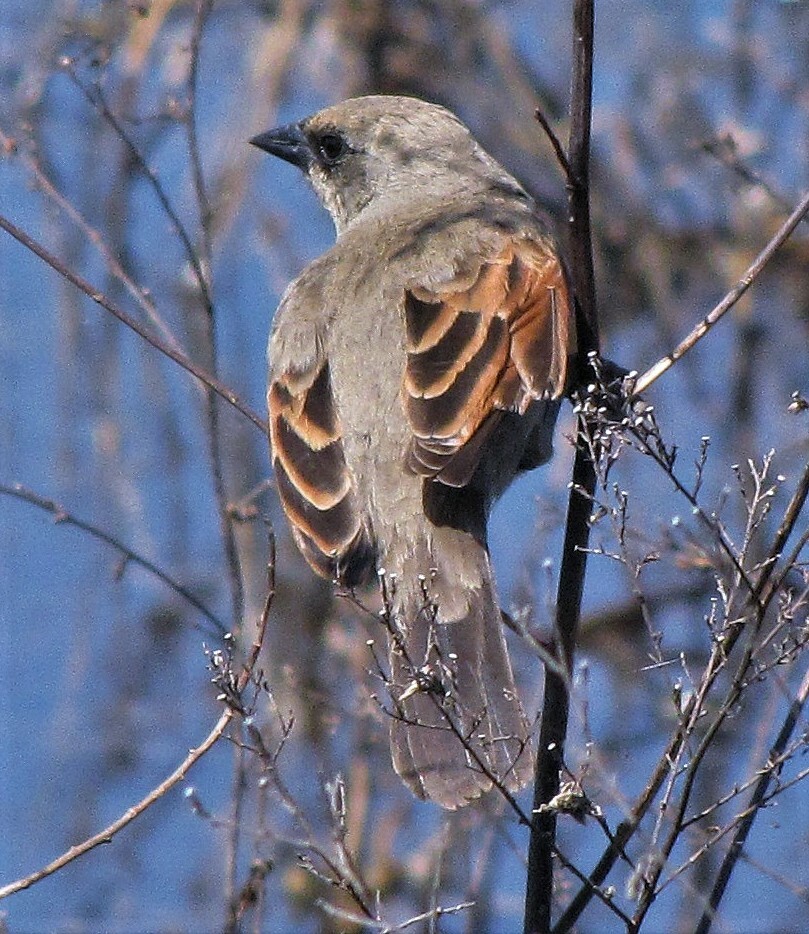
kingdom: Animalia
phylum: Chordata
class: Aves
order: Passeriformes
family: Icteridae
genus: Agelaioides
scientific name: Agelaioides badius
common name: Baywing
